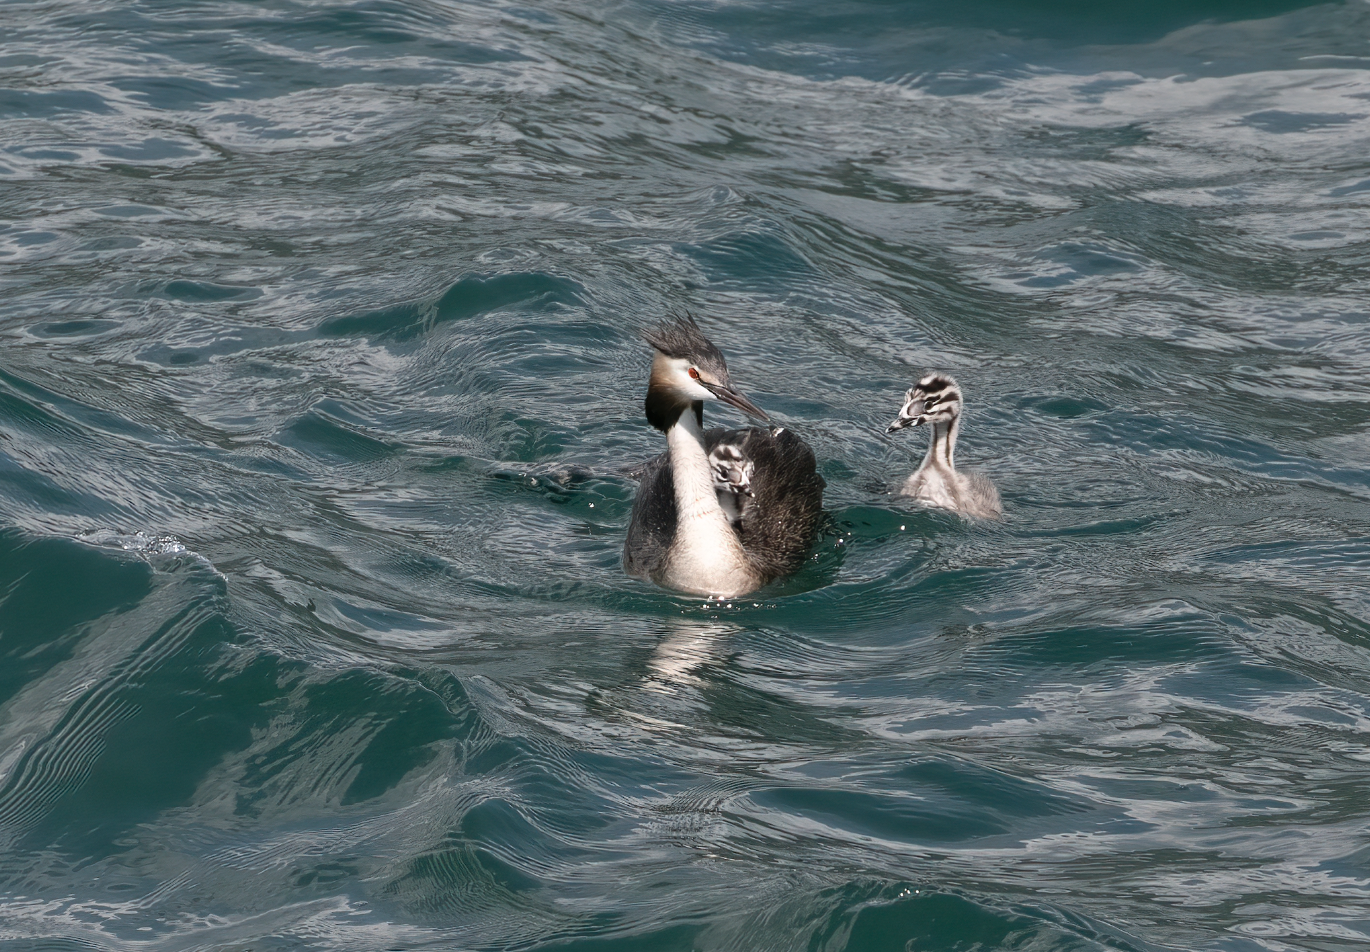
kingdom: Animalia
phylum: Chordata
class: Aves
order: Podicipediformes
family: Podicipedidae
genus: Podiceps
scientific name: Podiceps cristatus
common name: Great crested grebe
